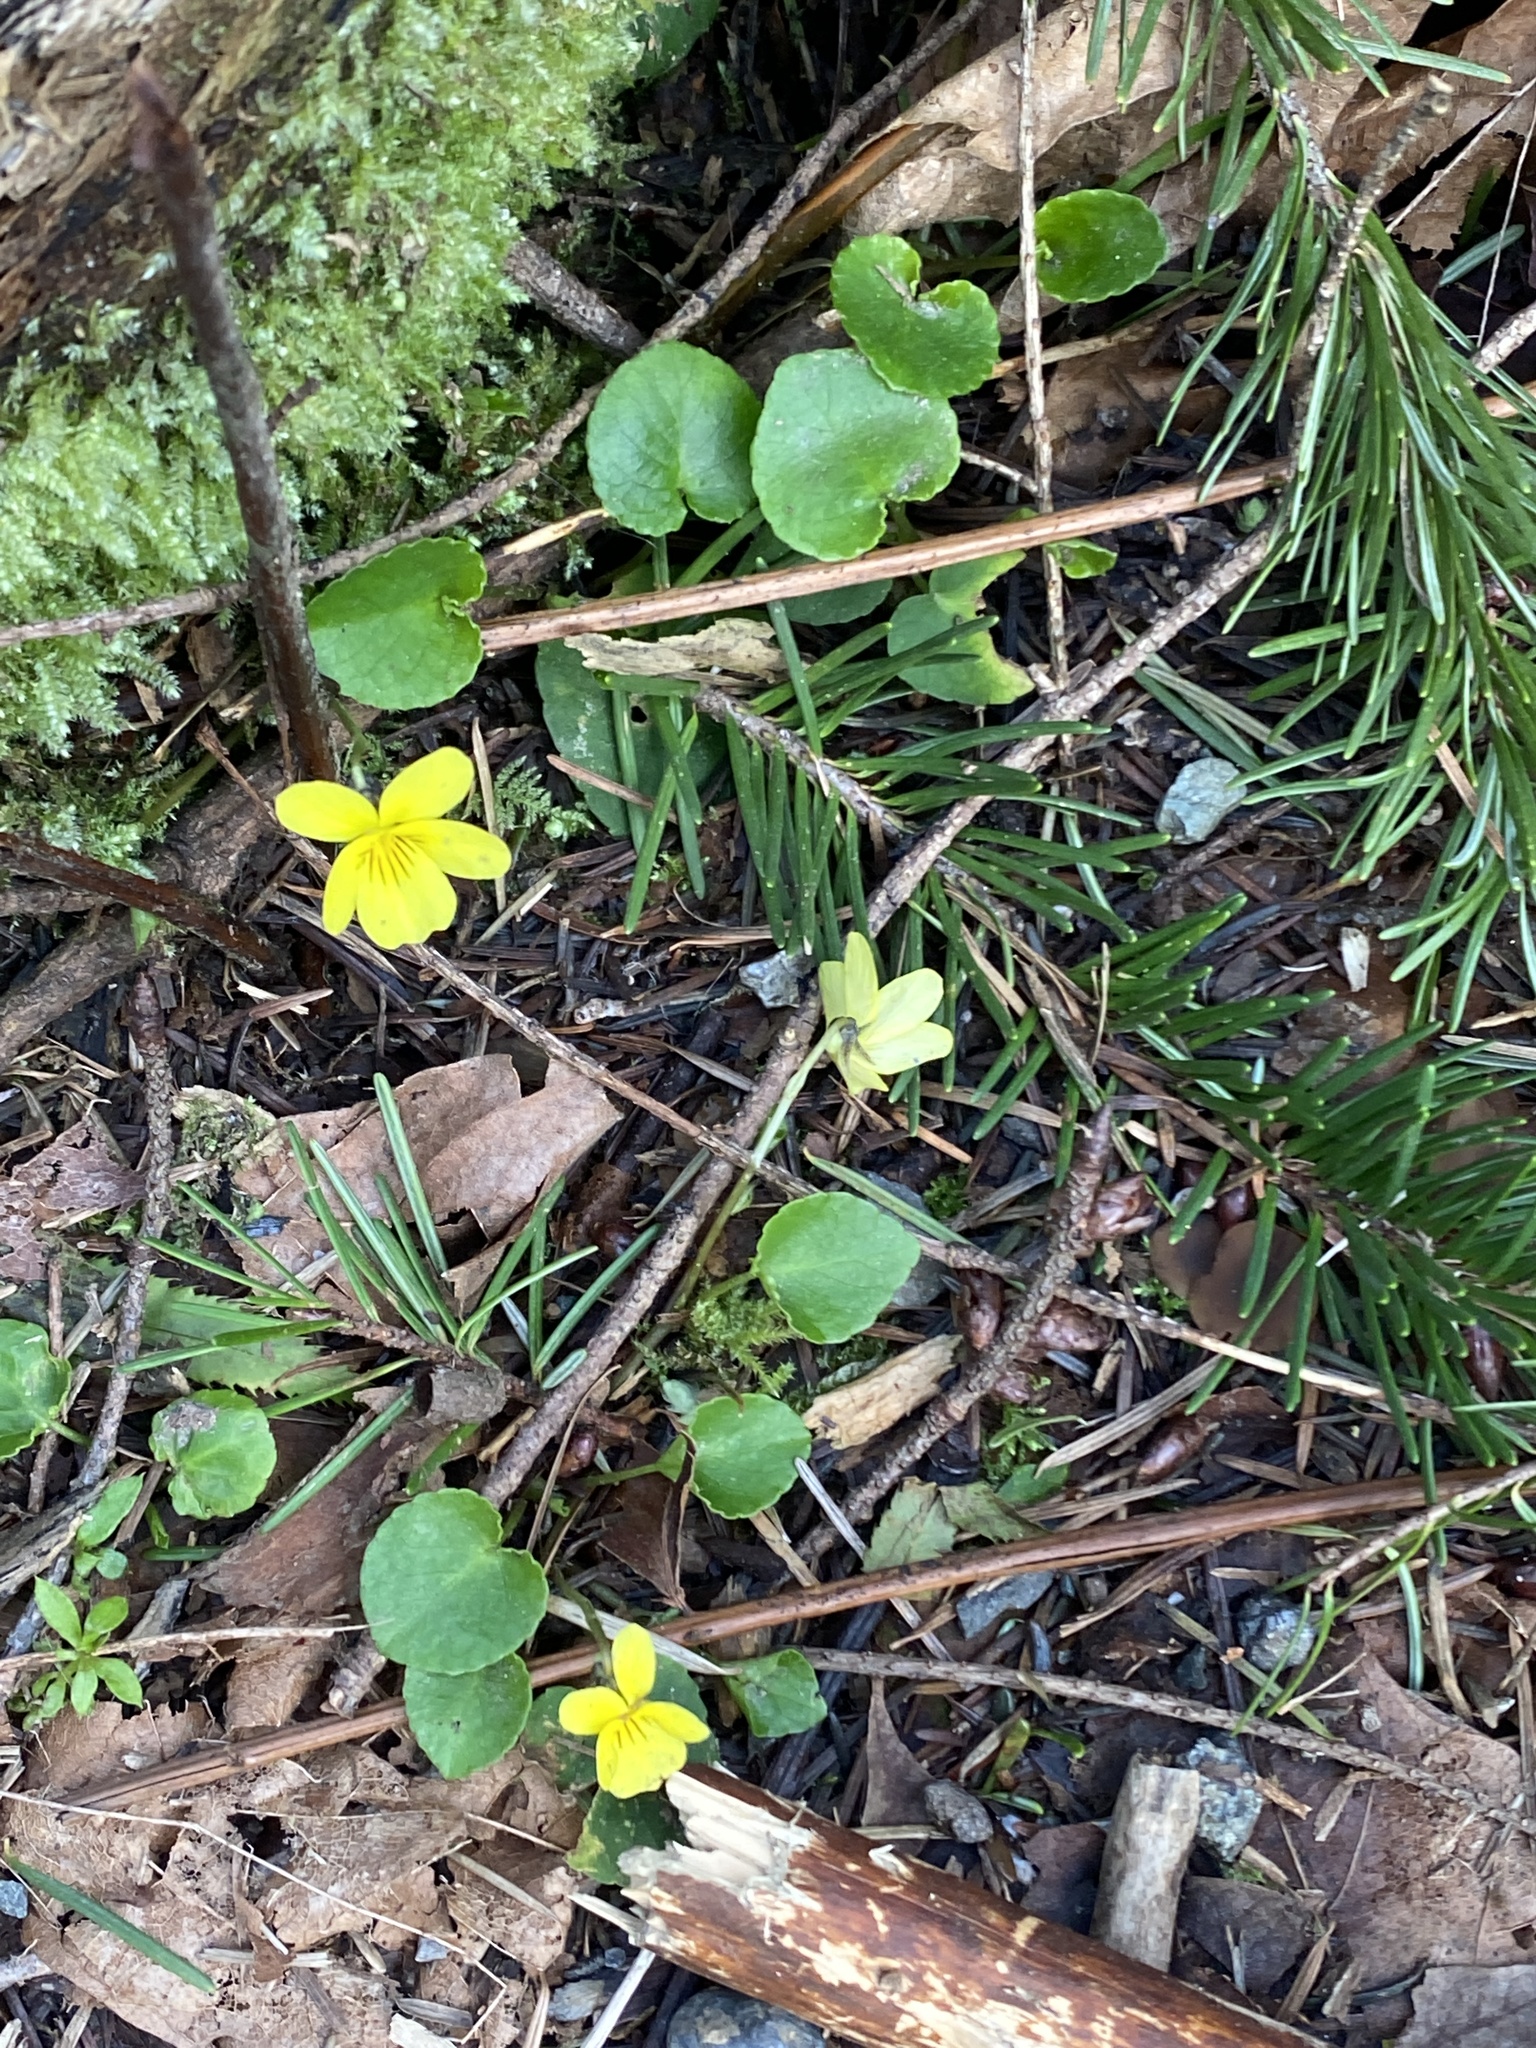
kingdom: Plantae
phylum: Tracheophyta
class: Magnoliopsida
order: Malpighiales
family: Violaceae
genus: Viola
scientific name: Viola sempervirens
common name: Evergreen violet
